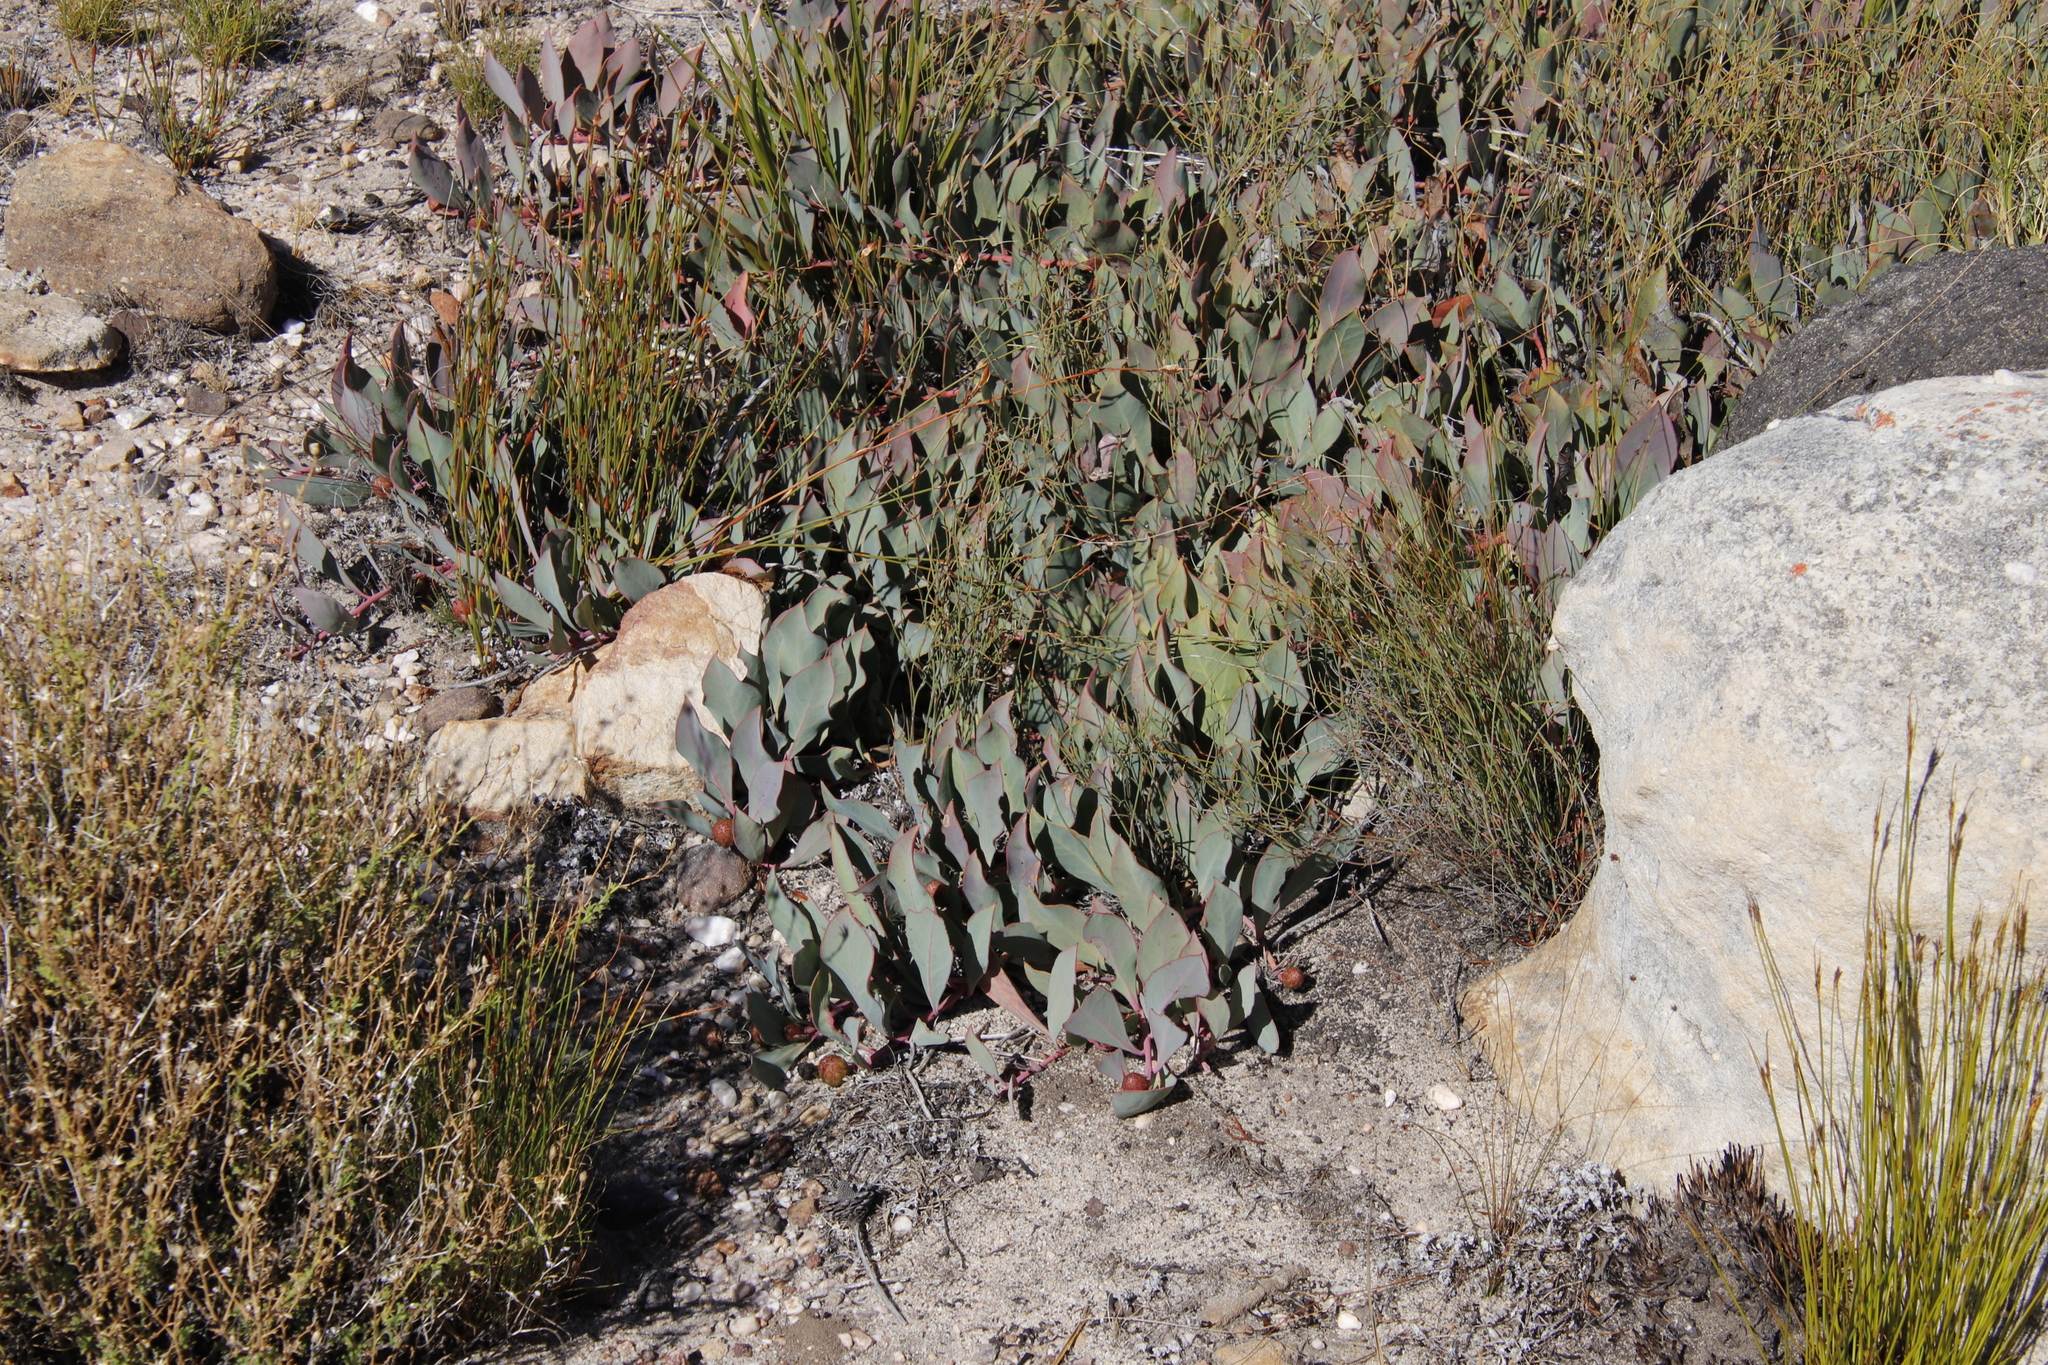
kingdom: Plantae
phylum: Tracheophyta
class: Magnoliopsida
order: Proteales
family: Proteaceae
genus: Protea
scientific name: Protea acaulos
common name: Common ground sugarbush
